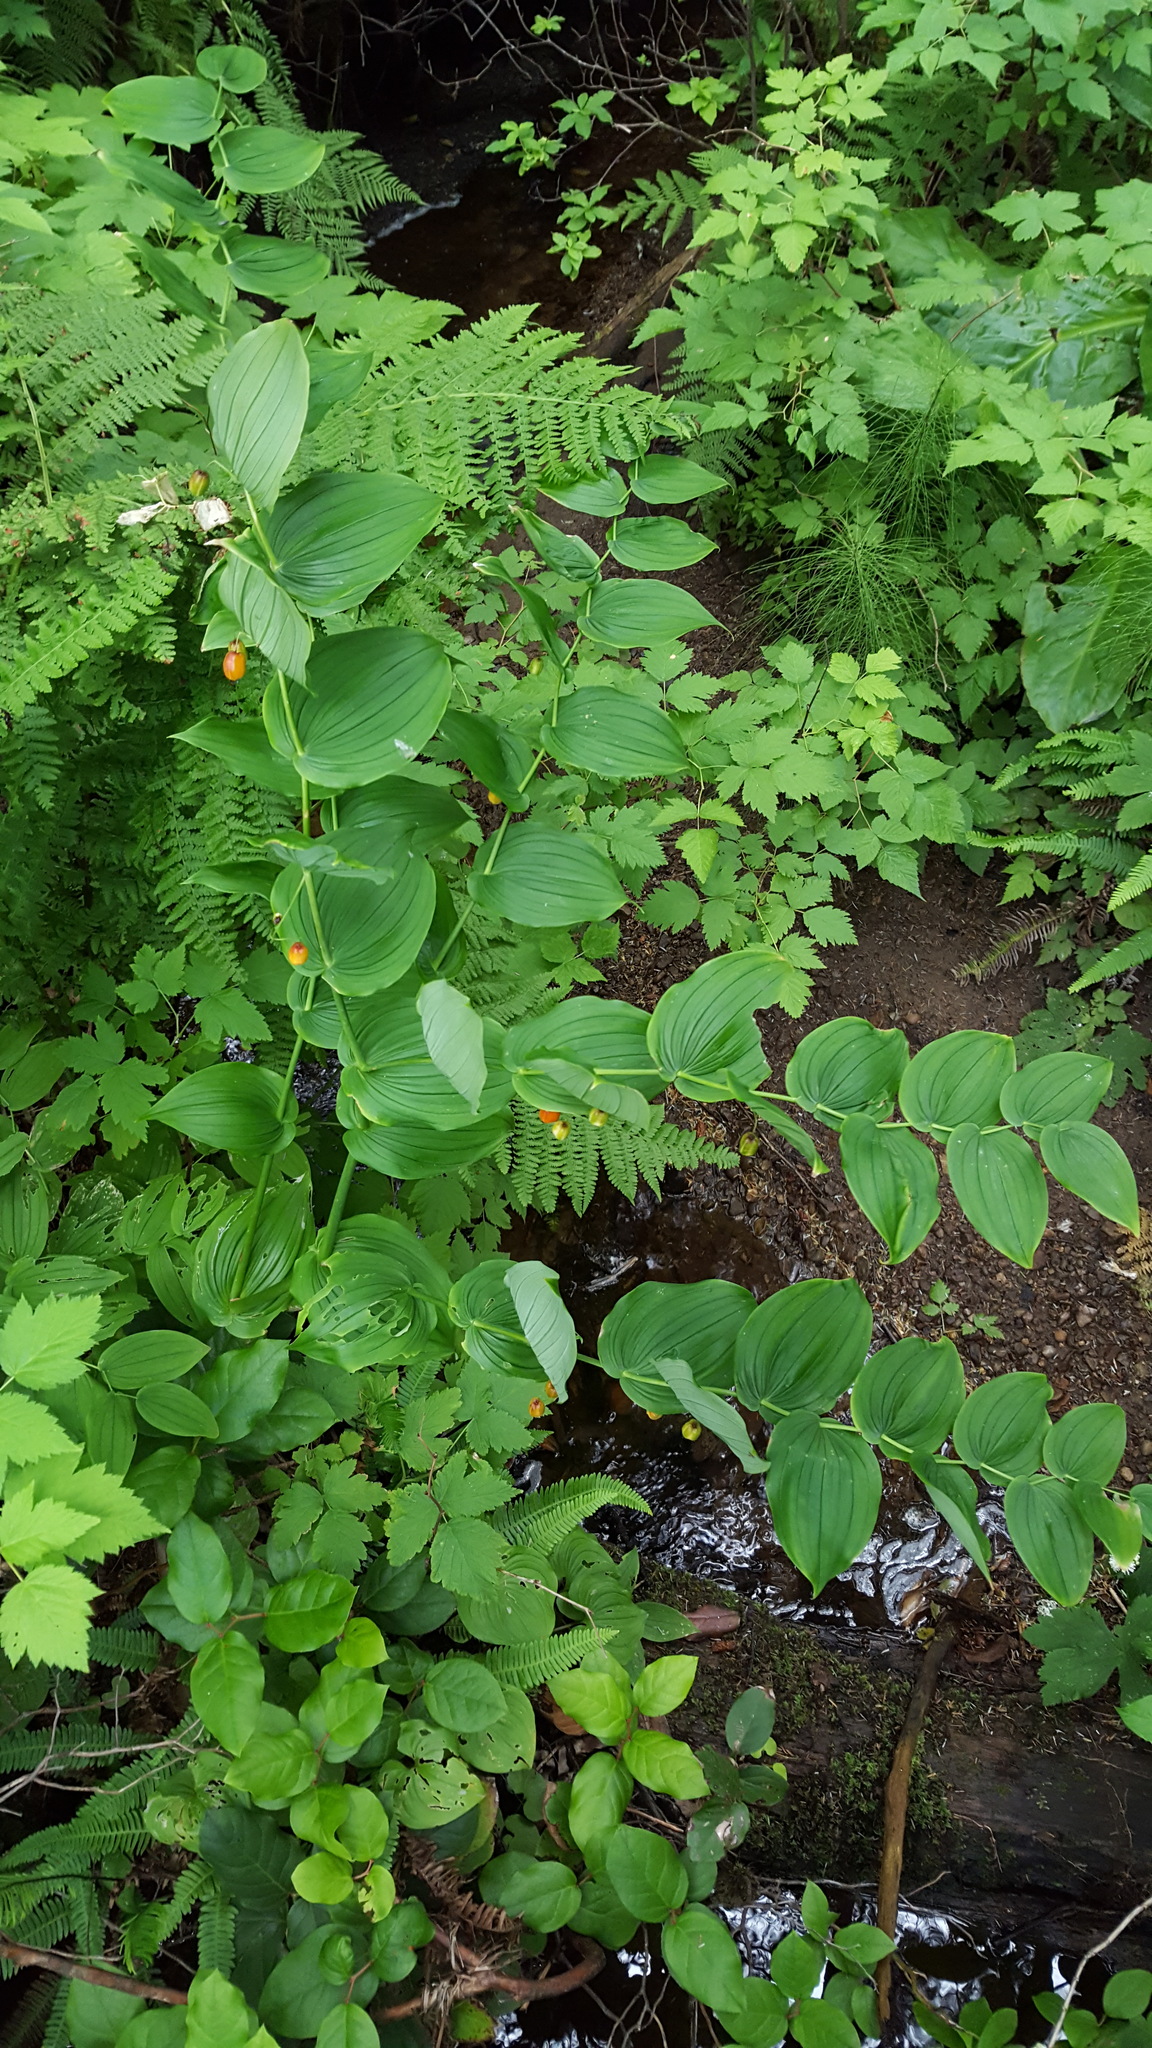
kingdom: Plantae
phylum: Tracheophyta
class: Liliopsida
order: Liliales
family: Liliaceae
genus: Streptopus
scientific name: Streptopus amplexifolius
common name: Clasp twisted stalk
